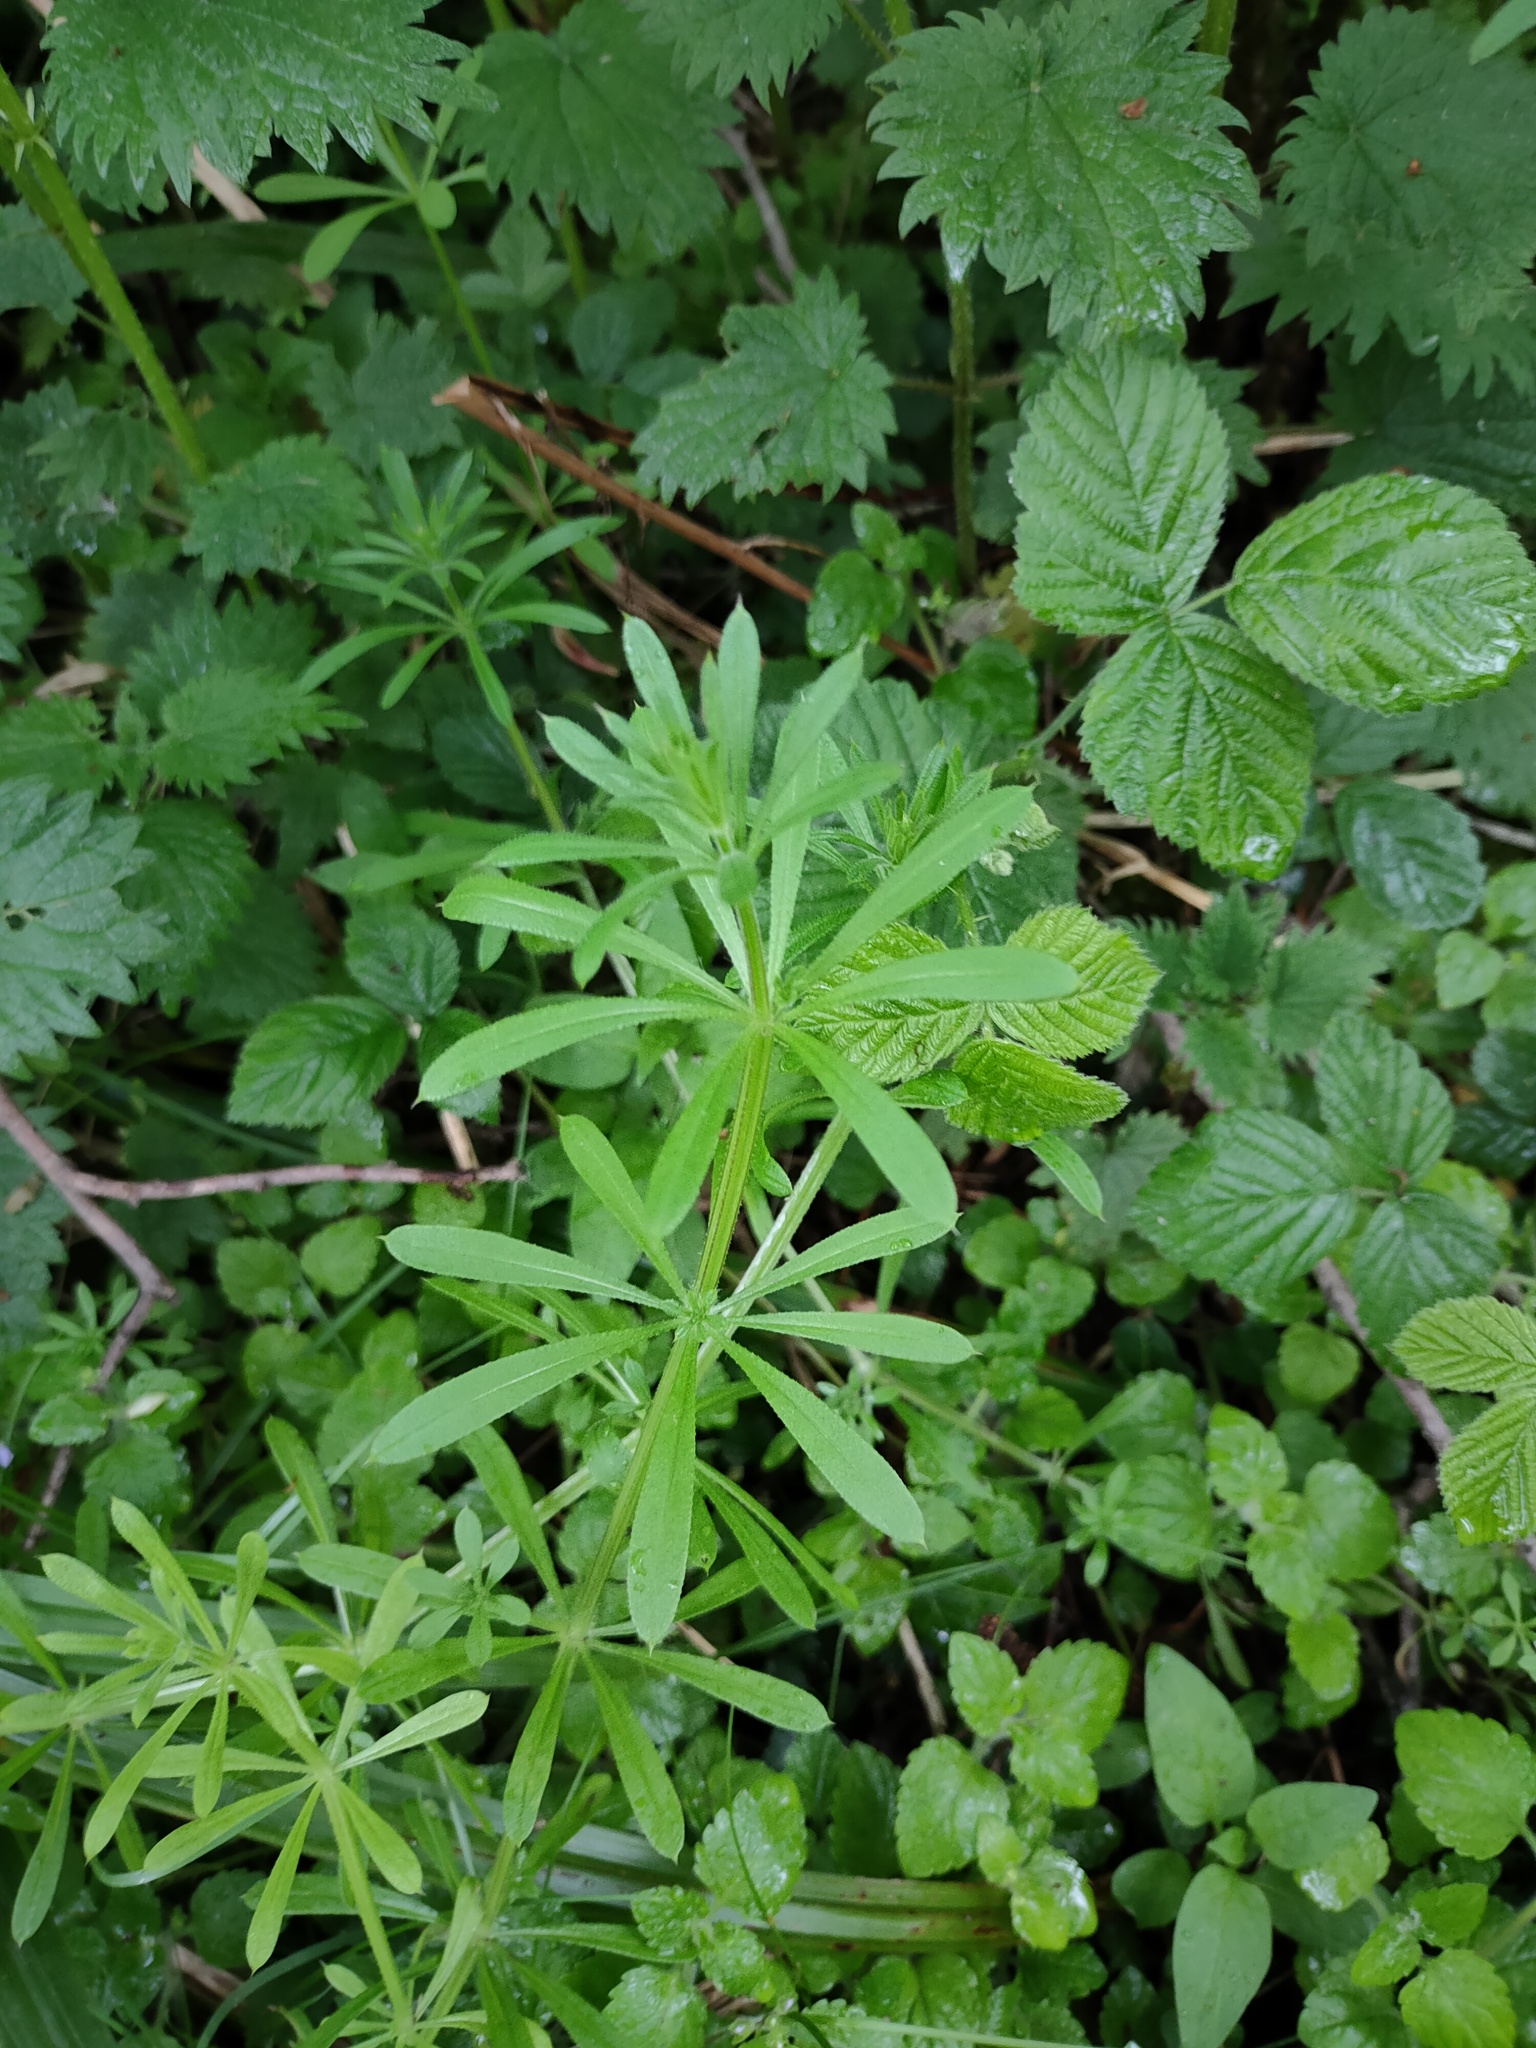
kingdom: Plantae
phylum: Tracheophyta
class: Magnoliopsida
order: Gentianales
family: Rubiaceae
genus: Galium
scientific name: Galium aparine
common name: Cleavers
